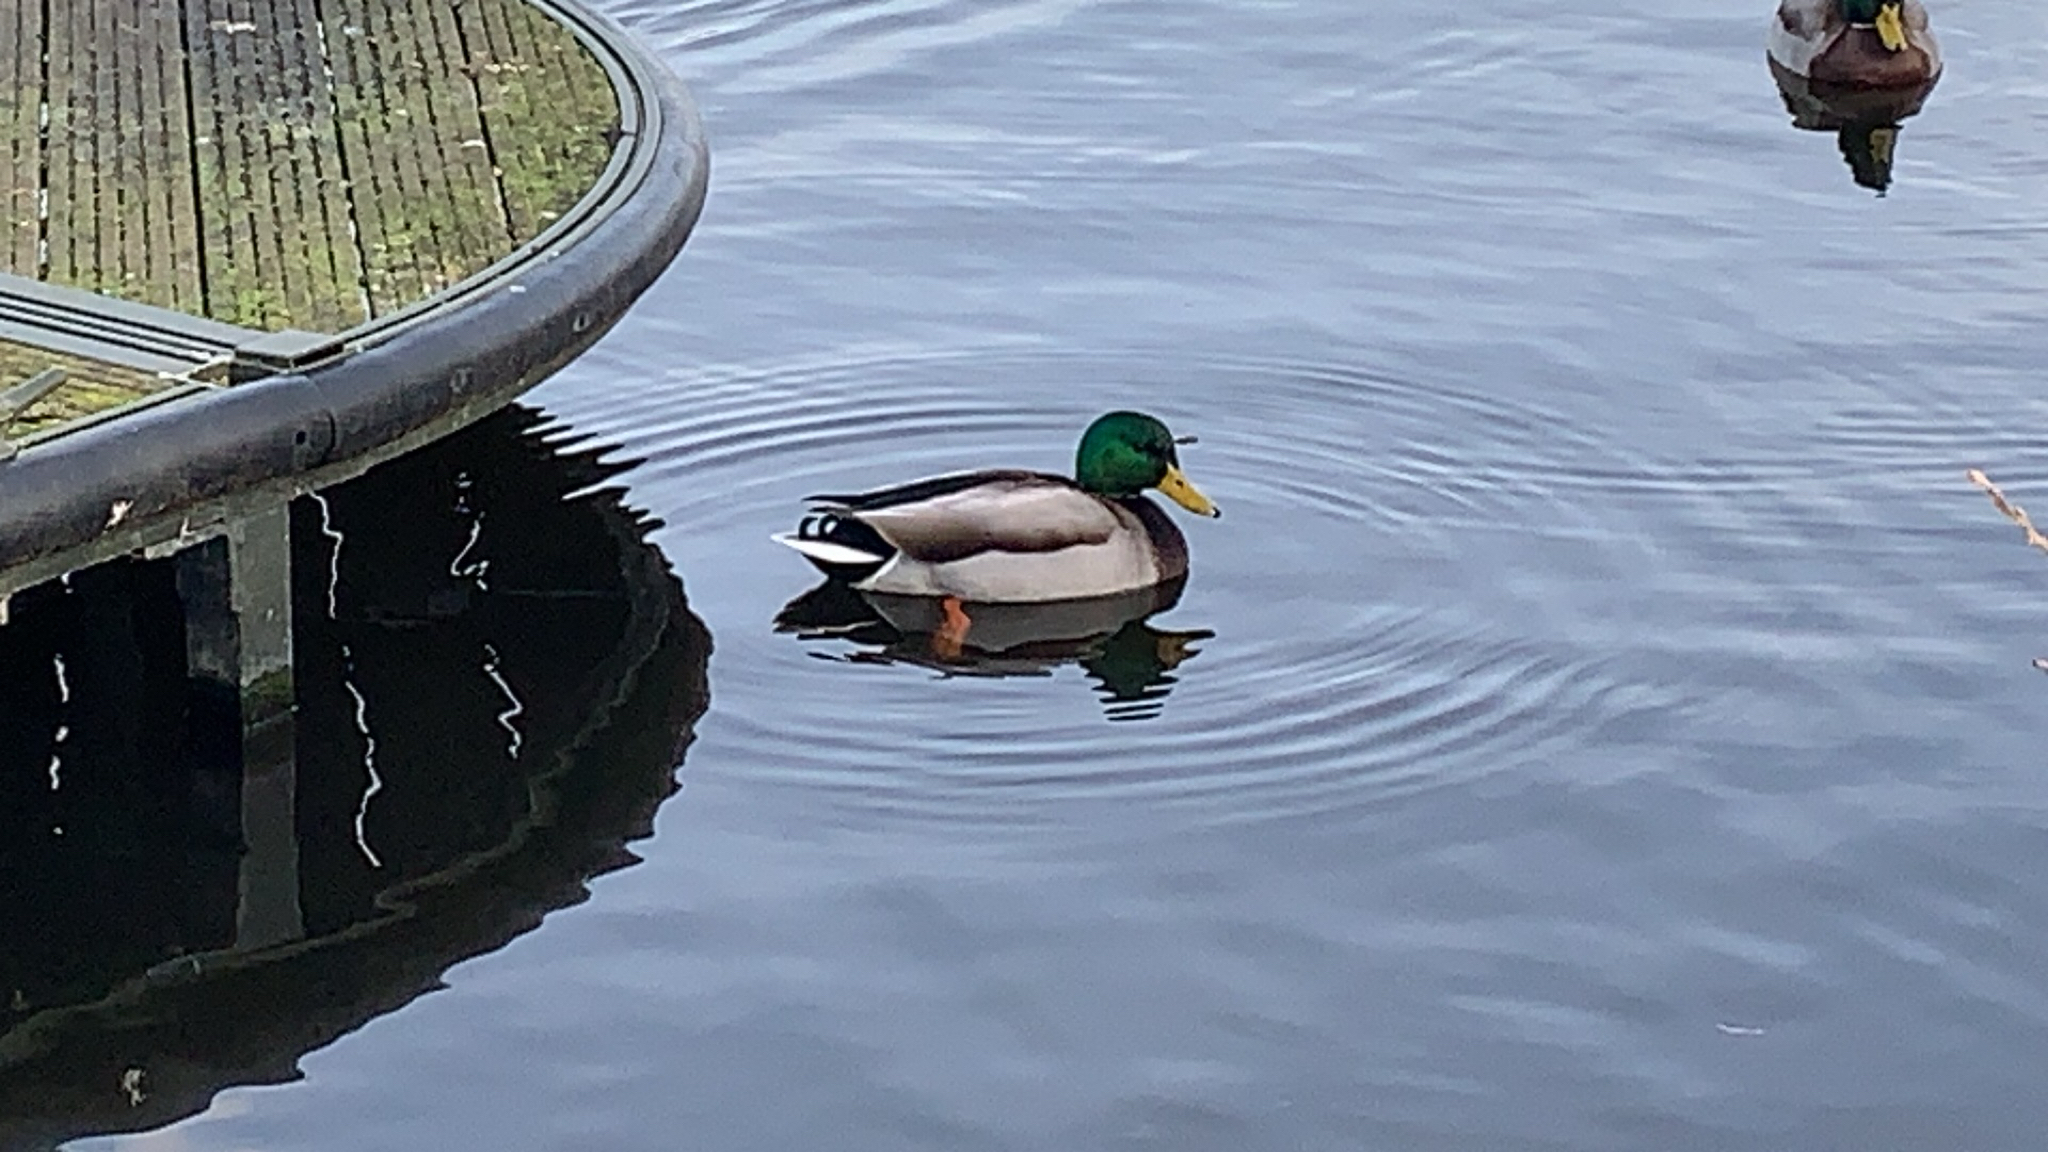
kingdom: Animalia
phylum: Chordata
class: Aves
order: Anseriformes
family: Anatidae
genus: Anas
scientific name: Anas platyrhynchos
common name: Mallard
